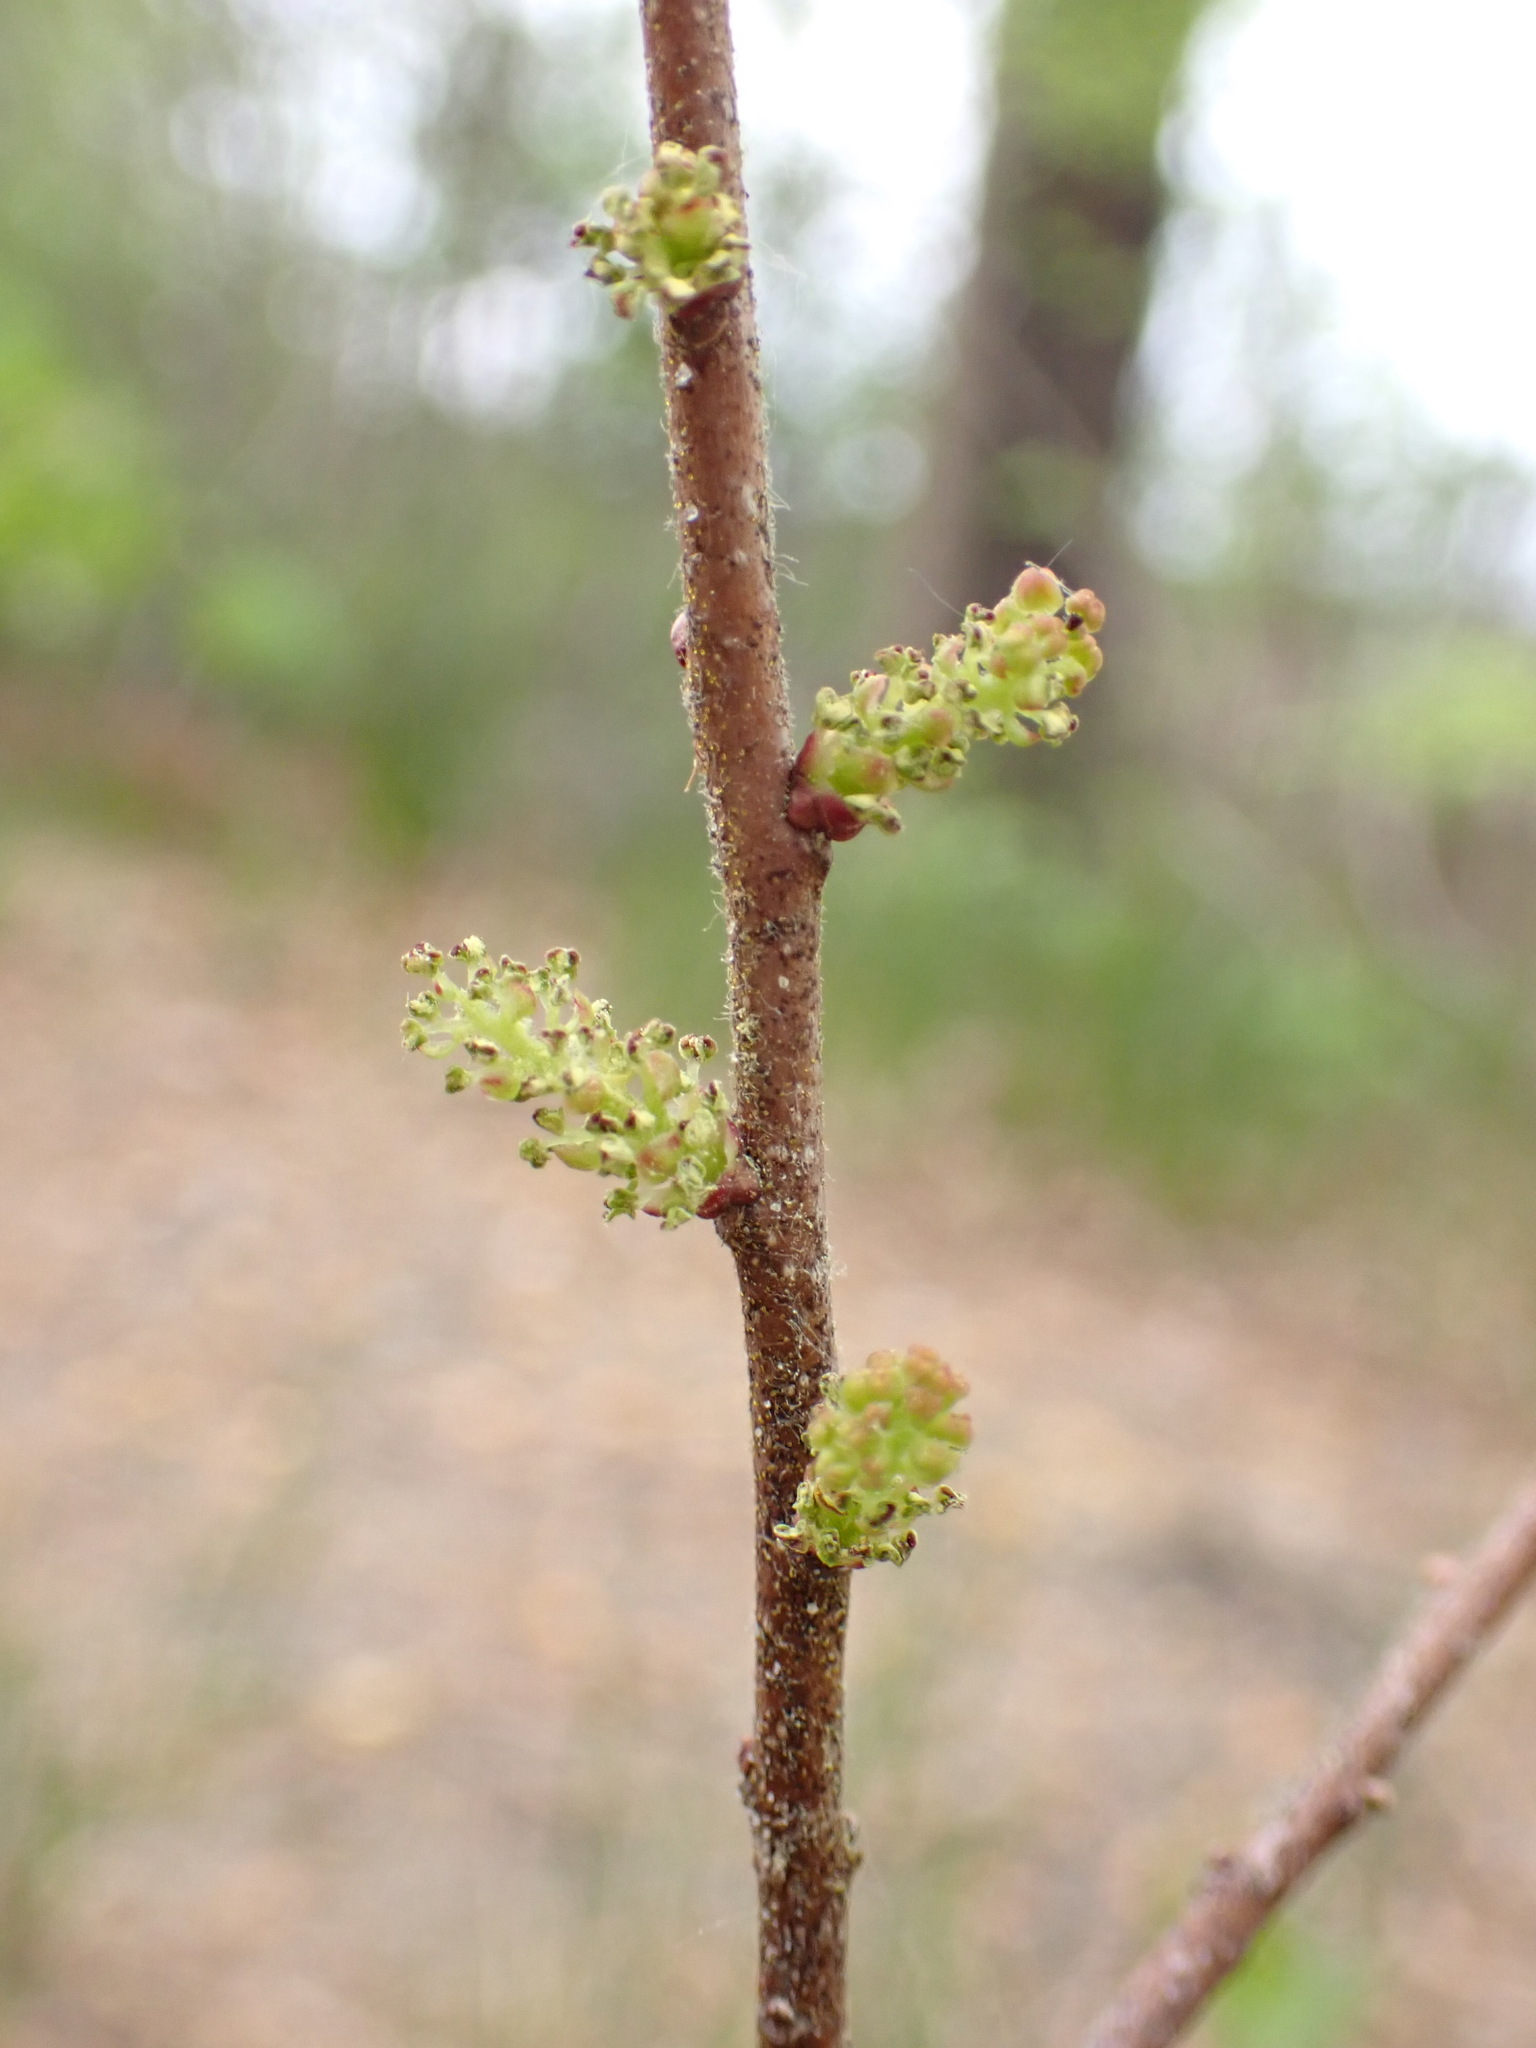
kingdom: Plantae
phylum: Tracheophyta
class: Magnoliopsida
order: Fagales
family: Myricaceae
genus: Morella
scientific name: Morella pensylvanica
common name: Northern bayberry
